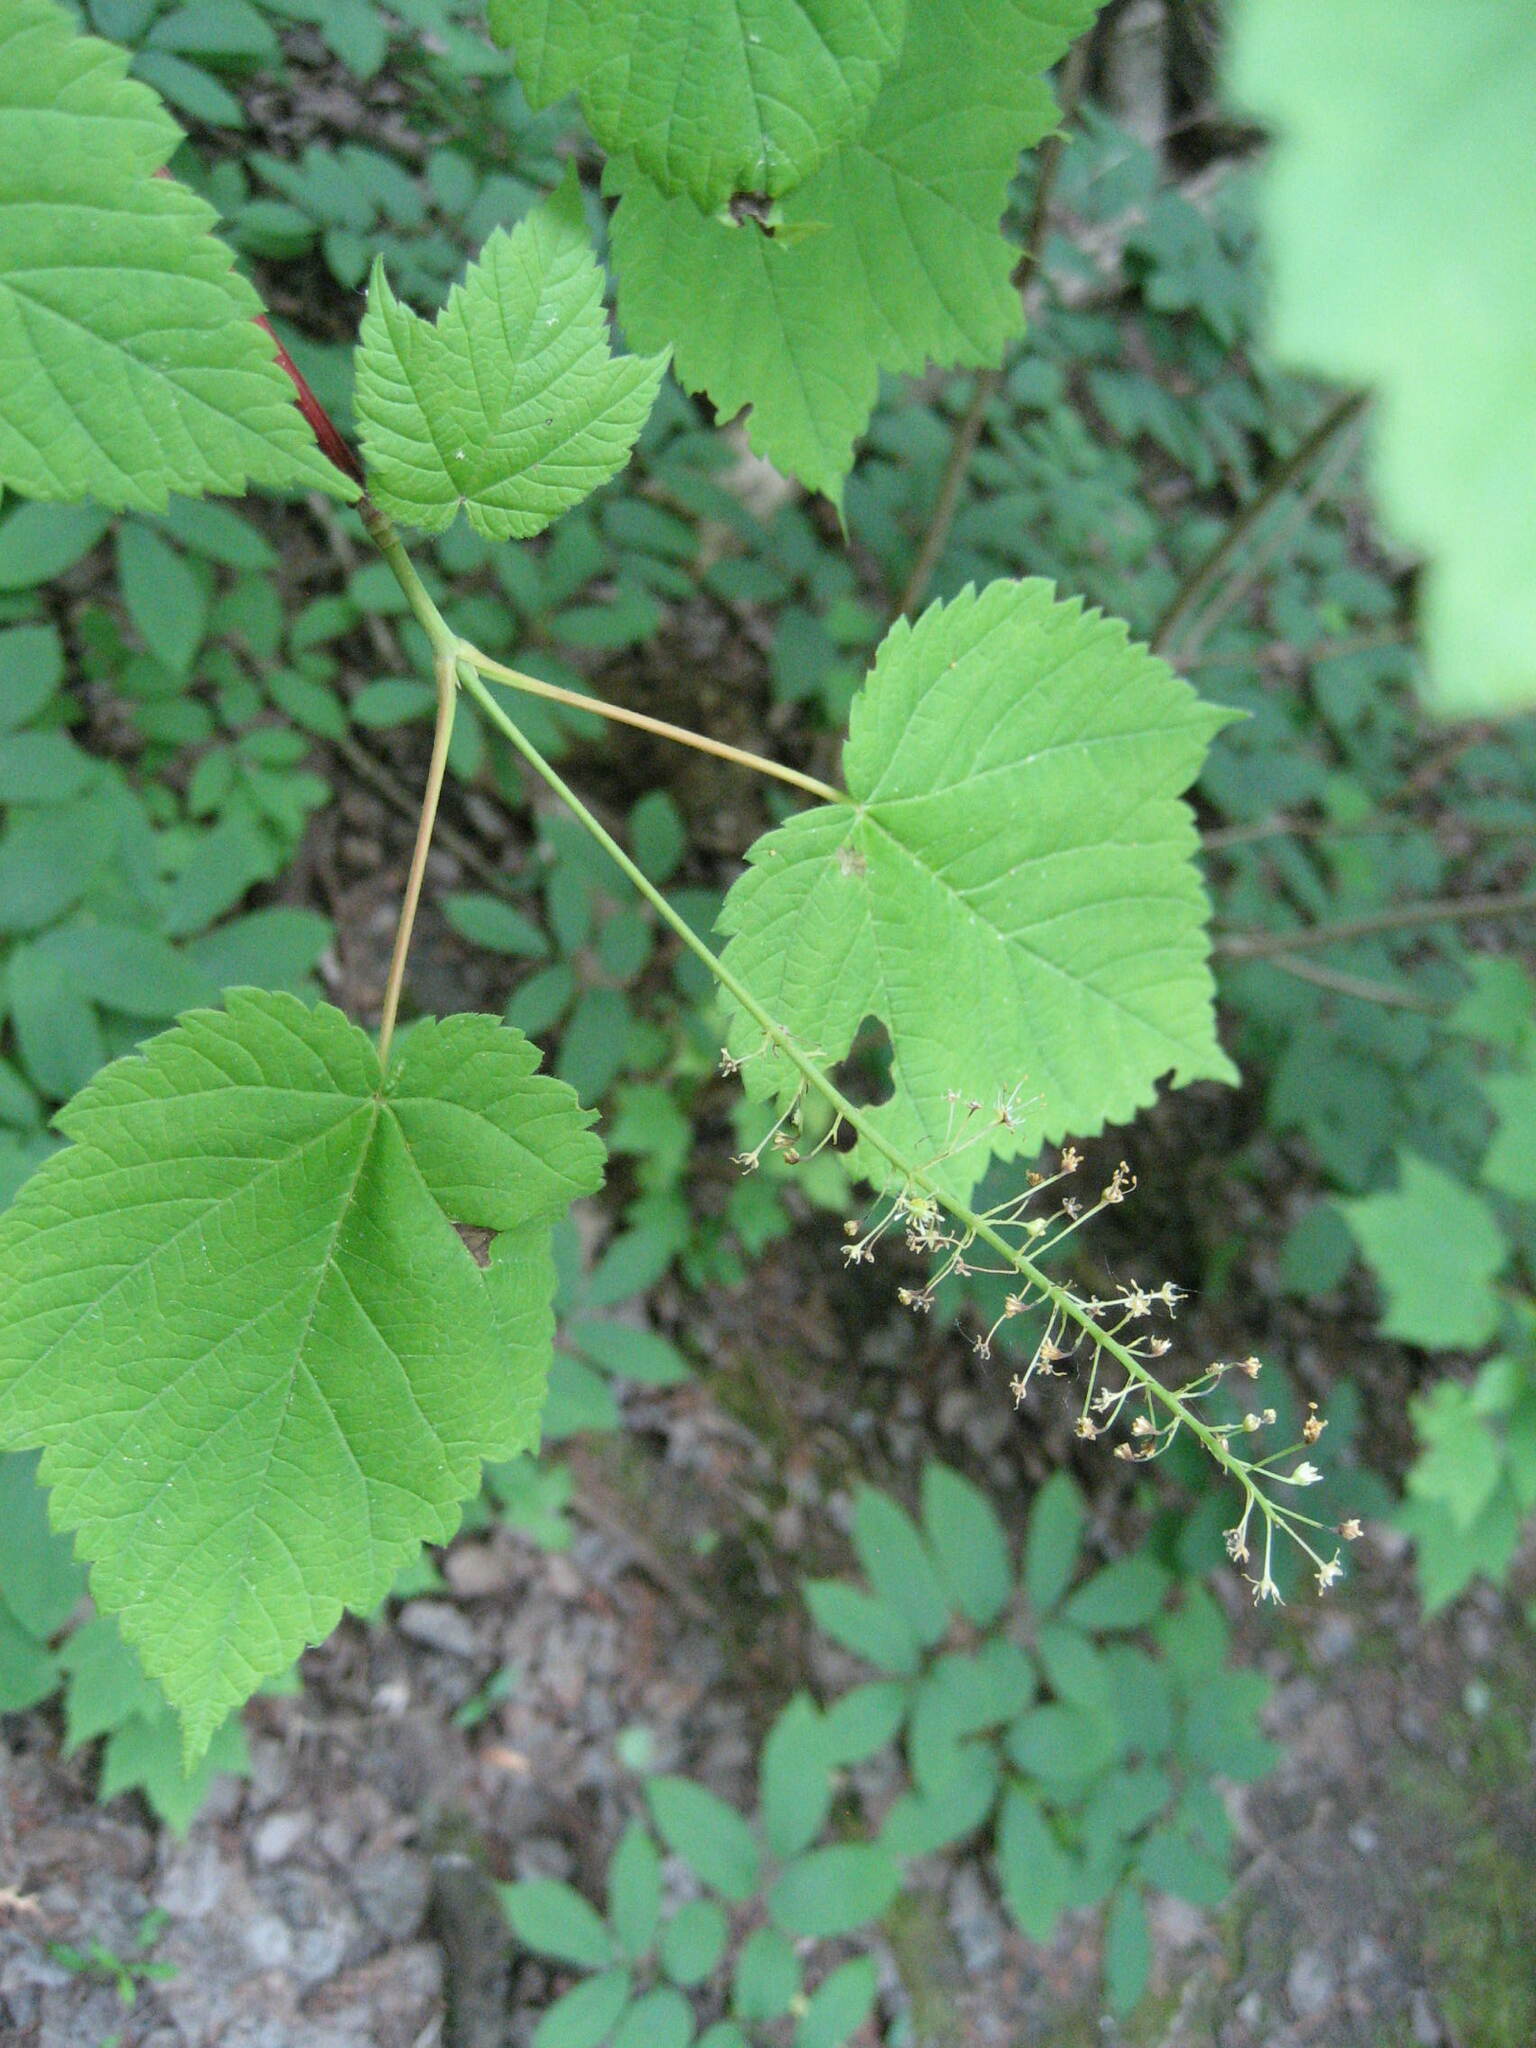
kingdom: Plantae
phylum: Tracheophyta
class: Magnoliopsida
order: Sapindales
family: Sapindaceae
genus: Acer
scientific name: Acer spicatum
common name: Mountain maple
